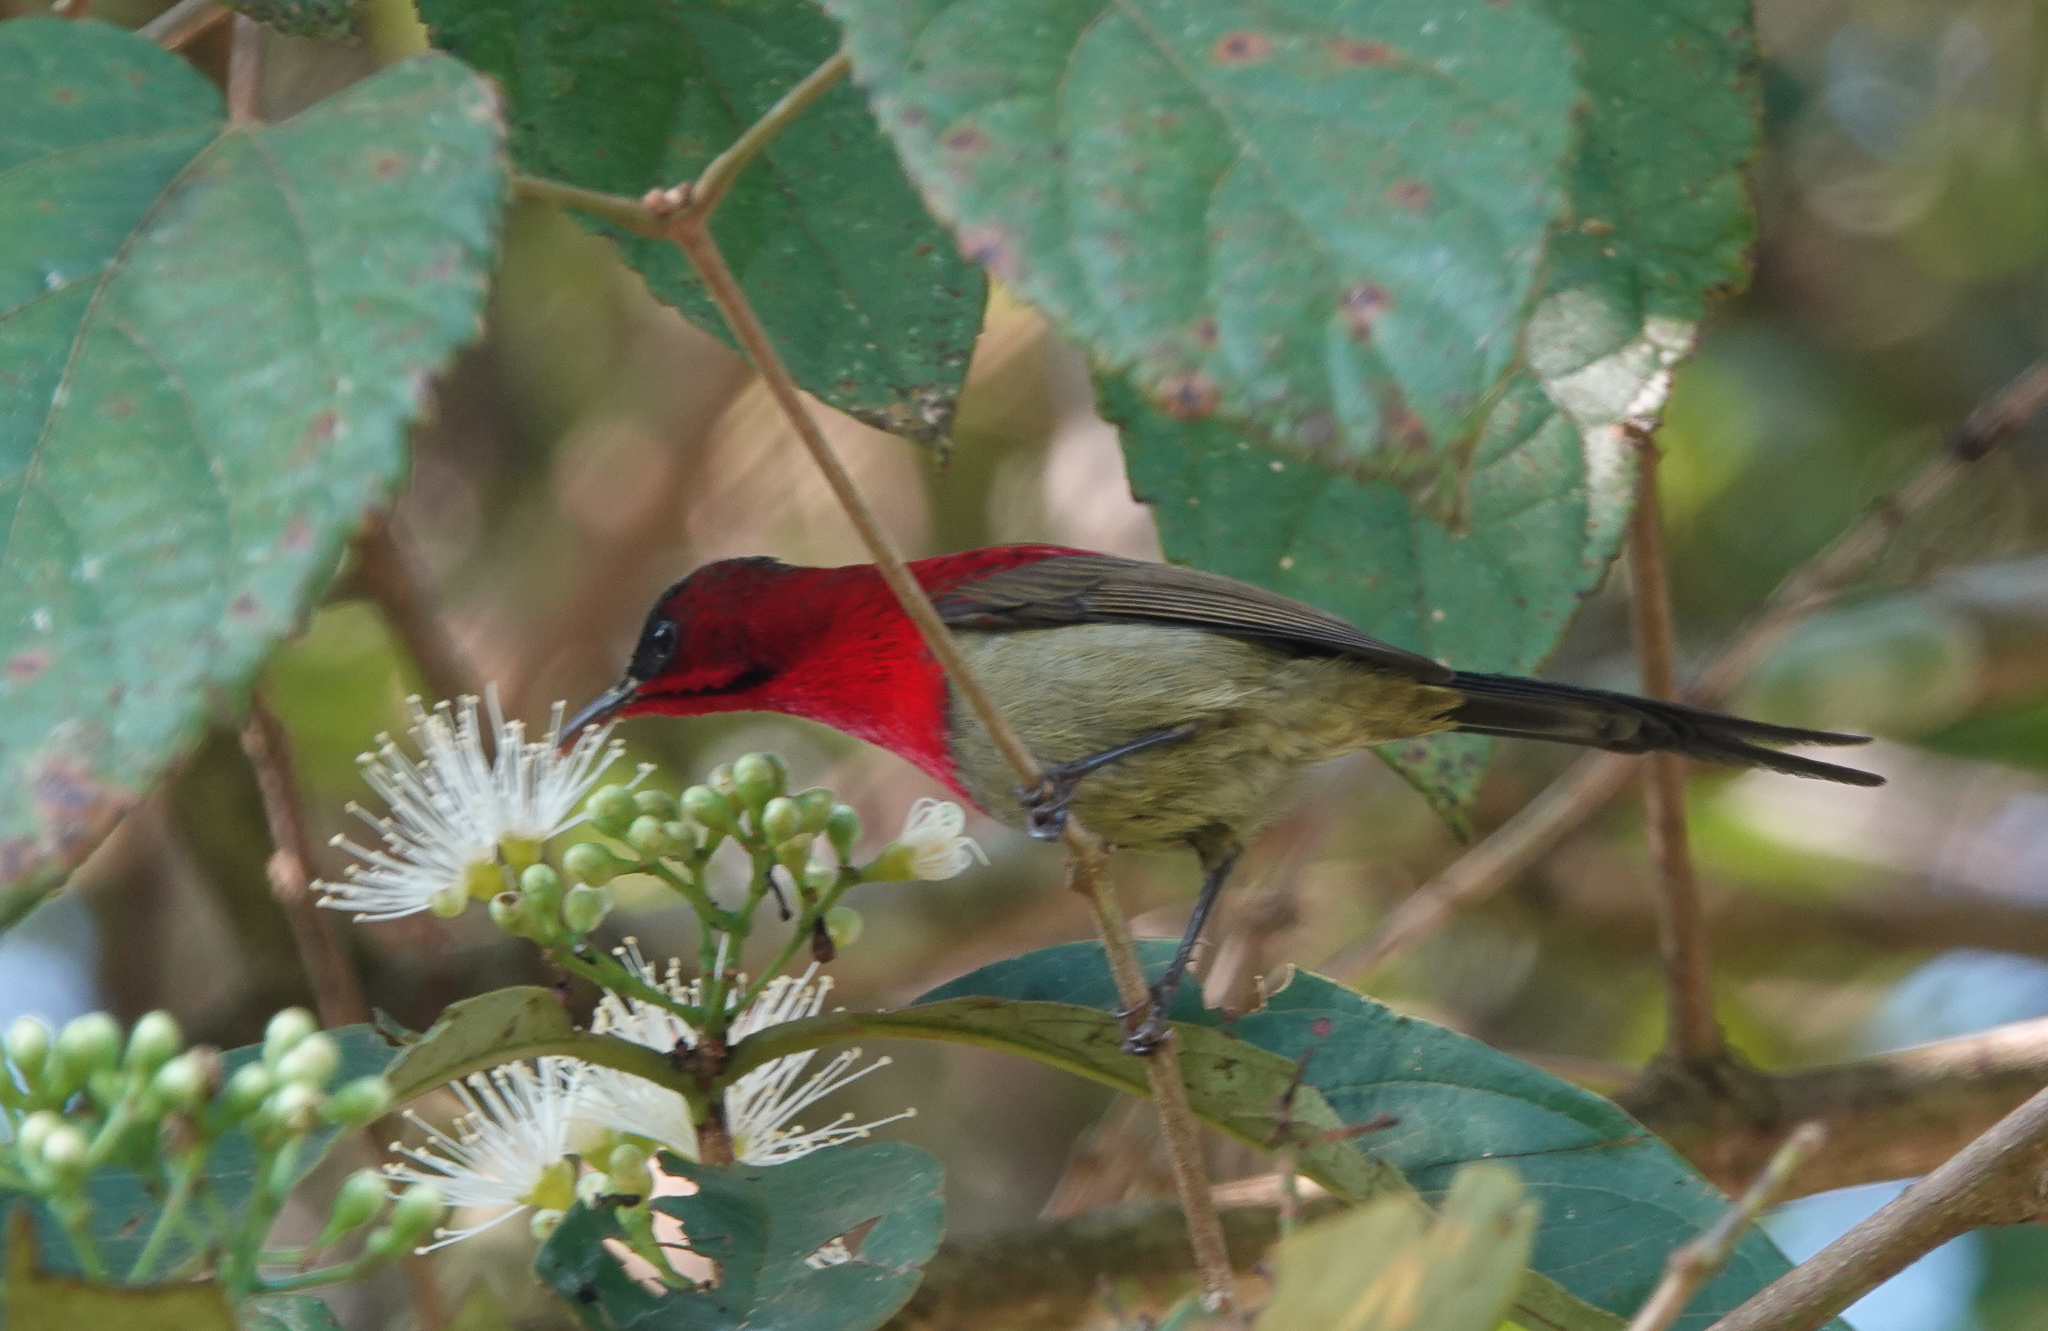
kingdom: Animalia
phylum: Chordata
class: Aves
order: Passeriformes
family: Nectariniidae
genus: Aethopyga
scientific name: Aethopyga siparaja
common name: Crimson sunbird
